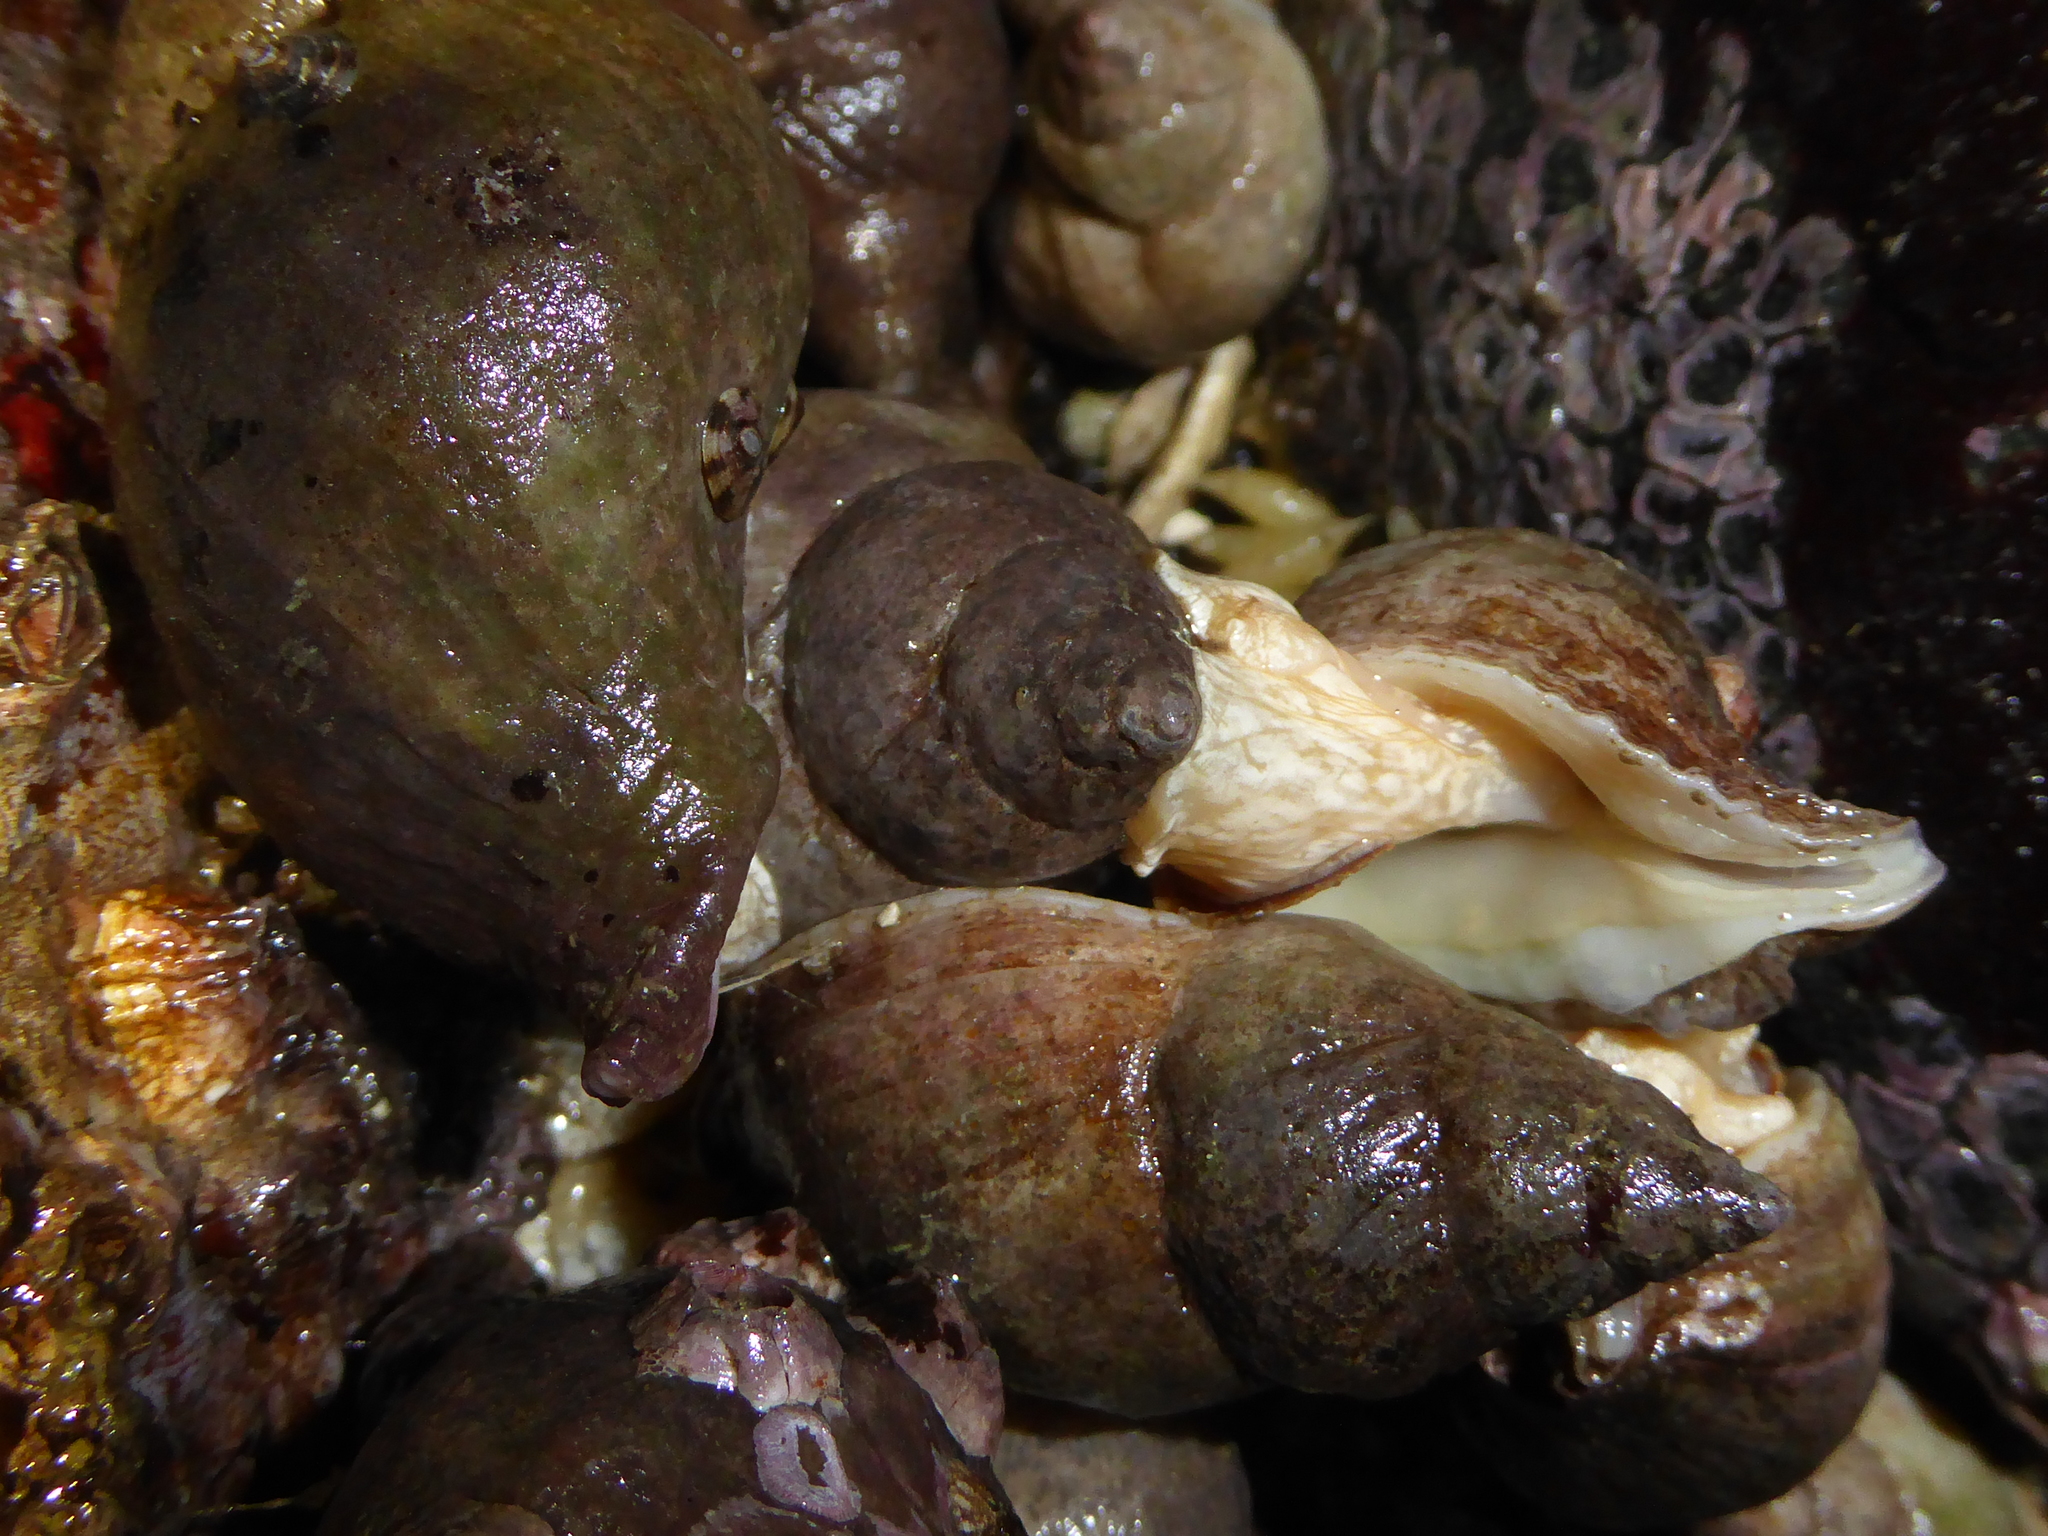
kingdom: Animalia
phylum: Mollusca
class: Gastropoda
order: Neogastropoda
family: Muricidae
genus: Nucella
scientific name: Nucella lamellosa
